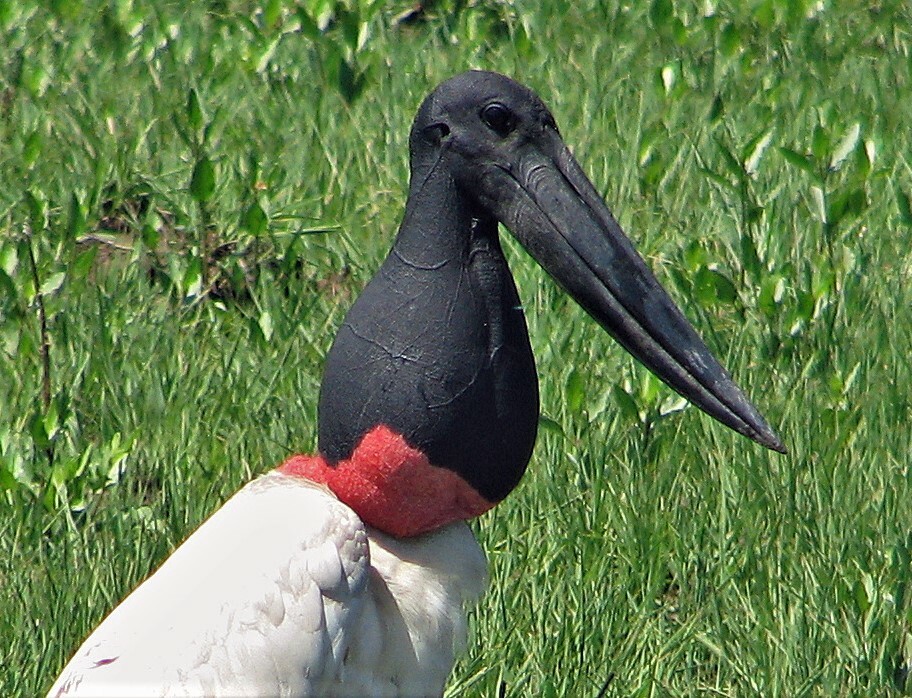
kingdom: Animalia
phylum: Chordata
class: Aves
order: Ciconiiformes
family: Ciconiidae
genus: Jabiru
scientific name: Jabiru mycteria
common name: Jabiru
